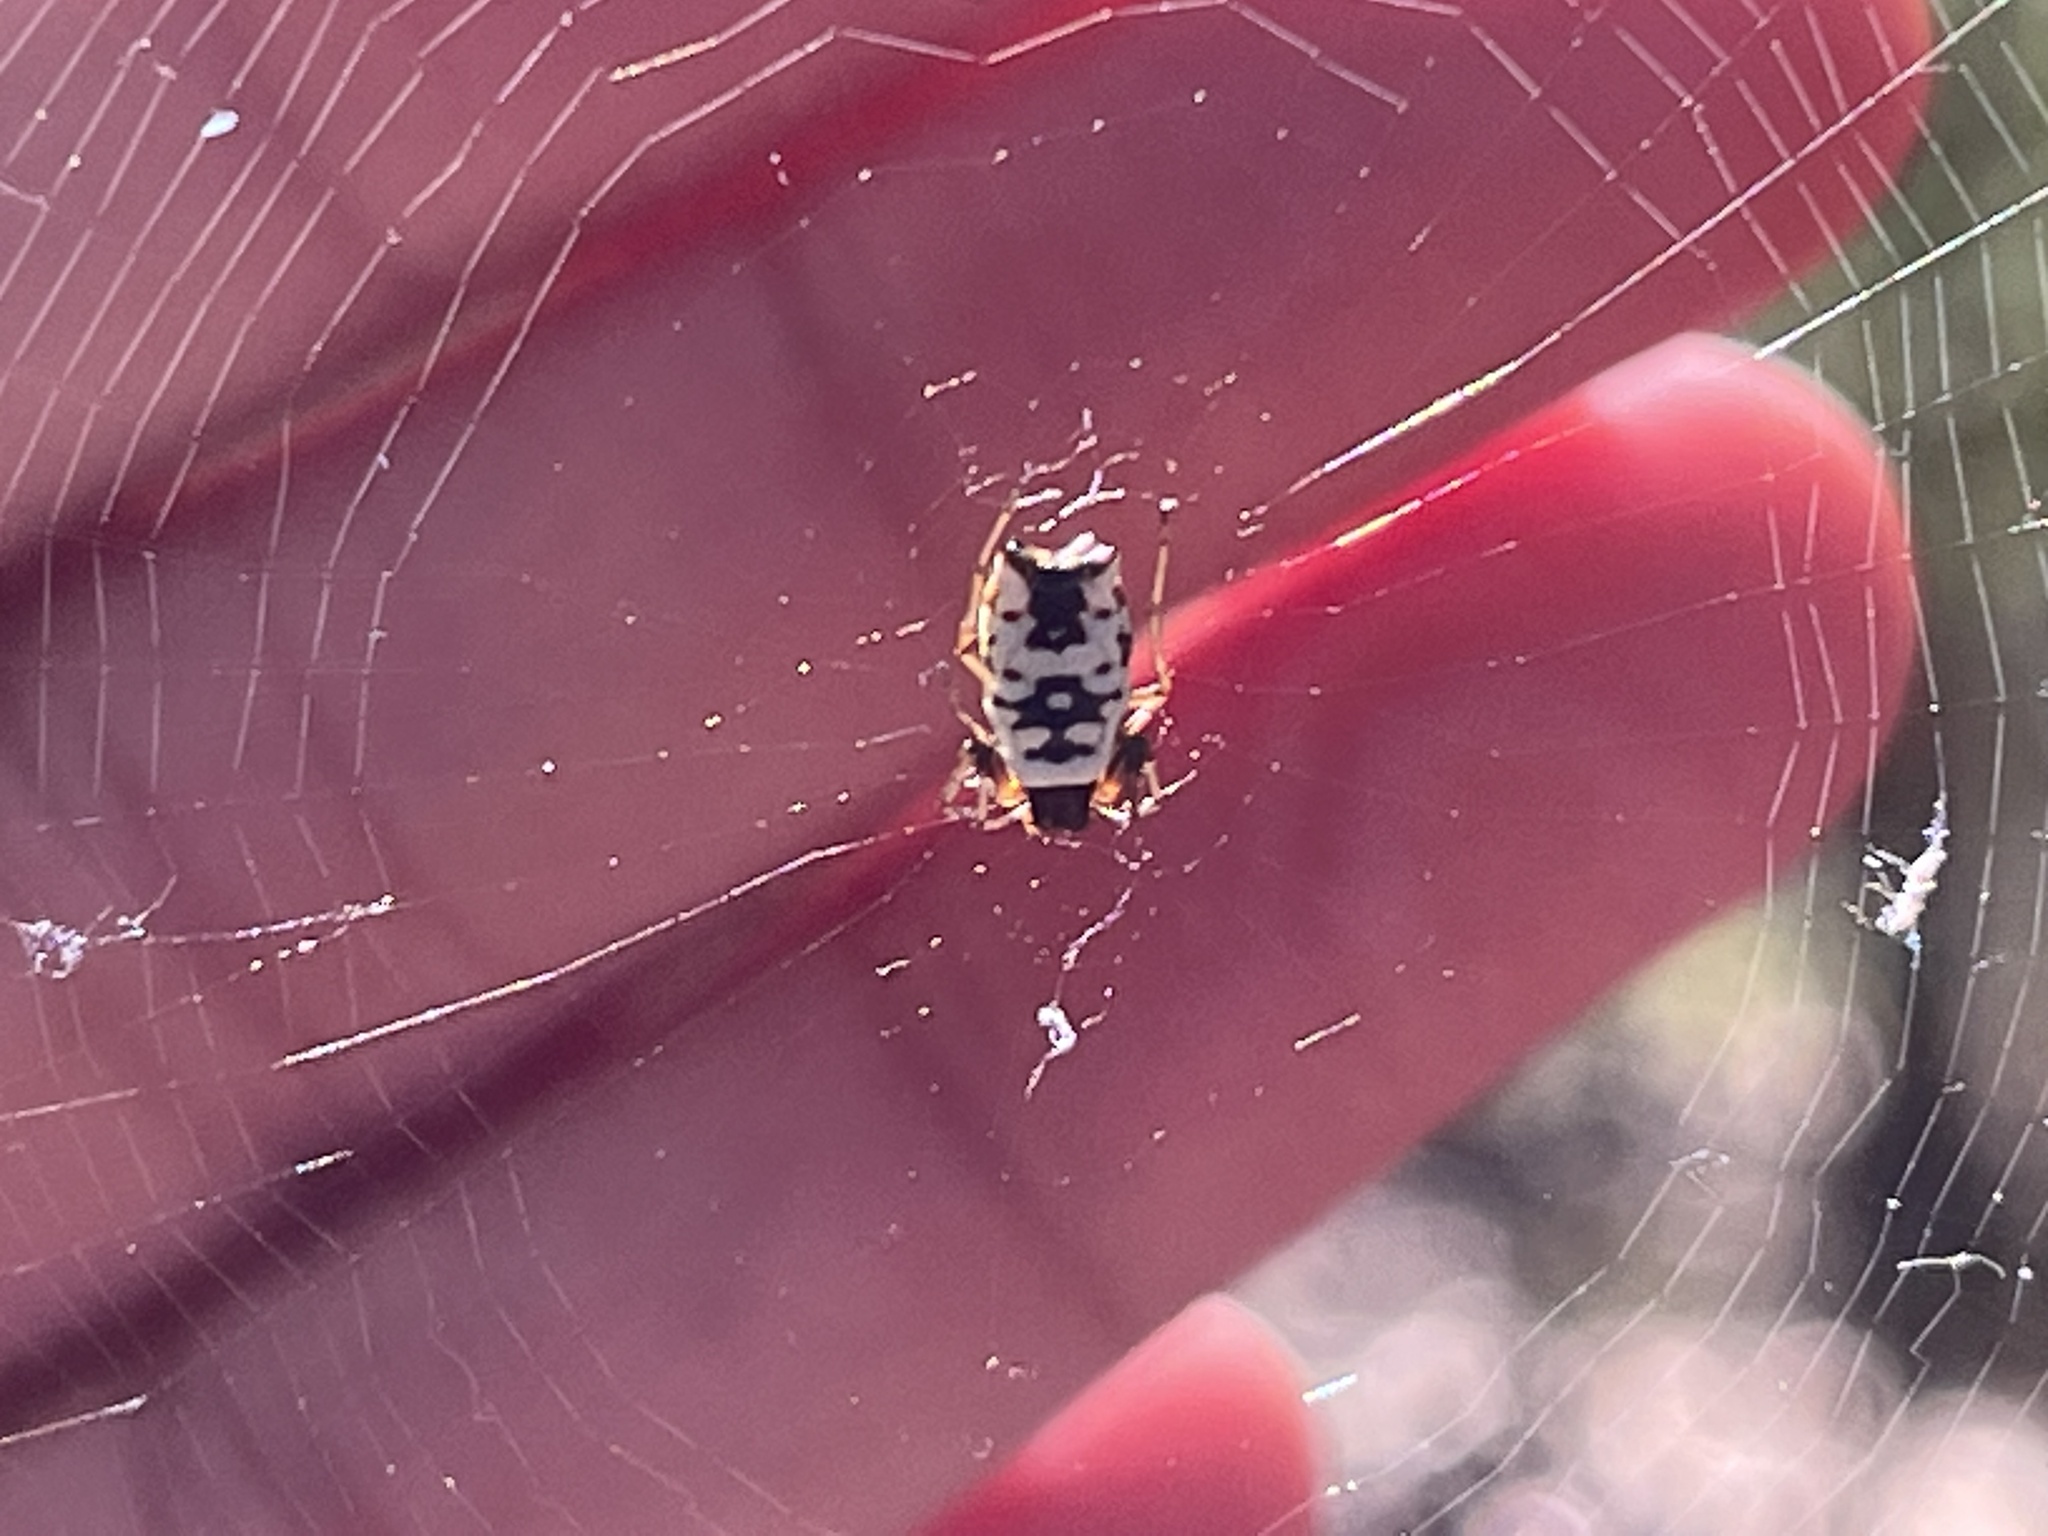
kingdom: Animalia
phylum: Arthropoda
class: Arachnida
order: Araneae
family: Araneidae
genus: Micrathena
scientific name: Micrathena mitrata
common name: Orb weavers
